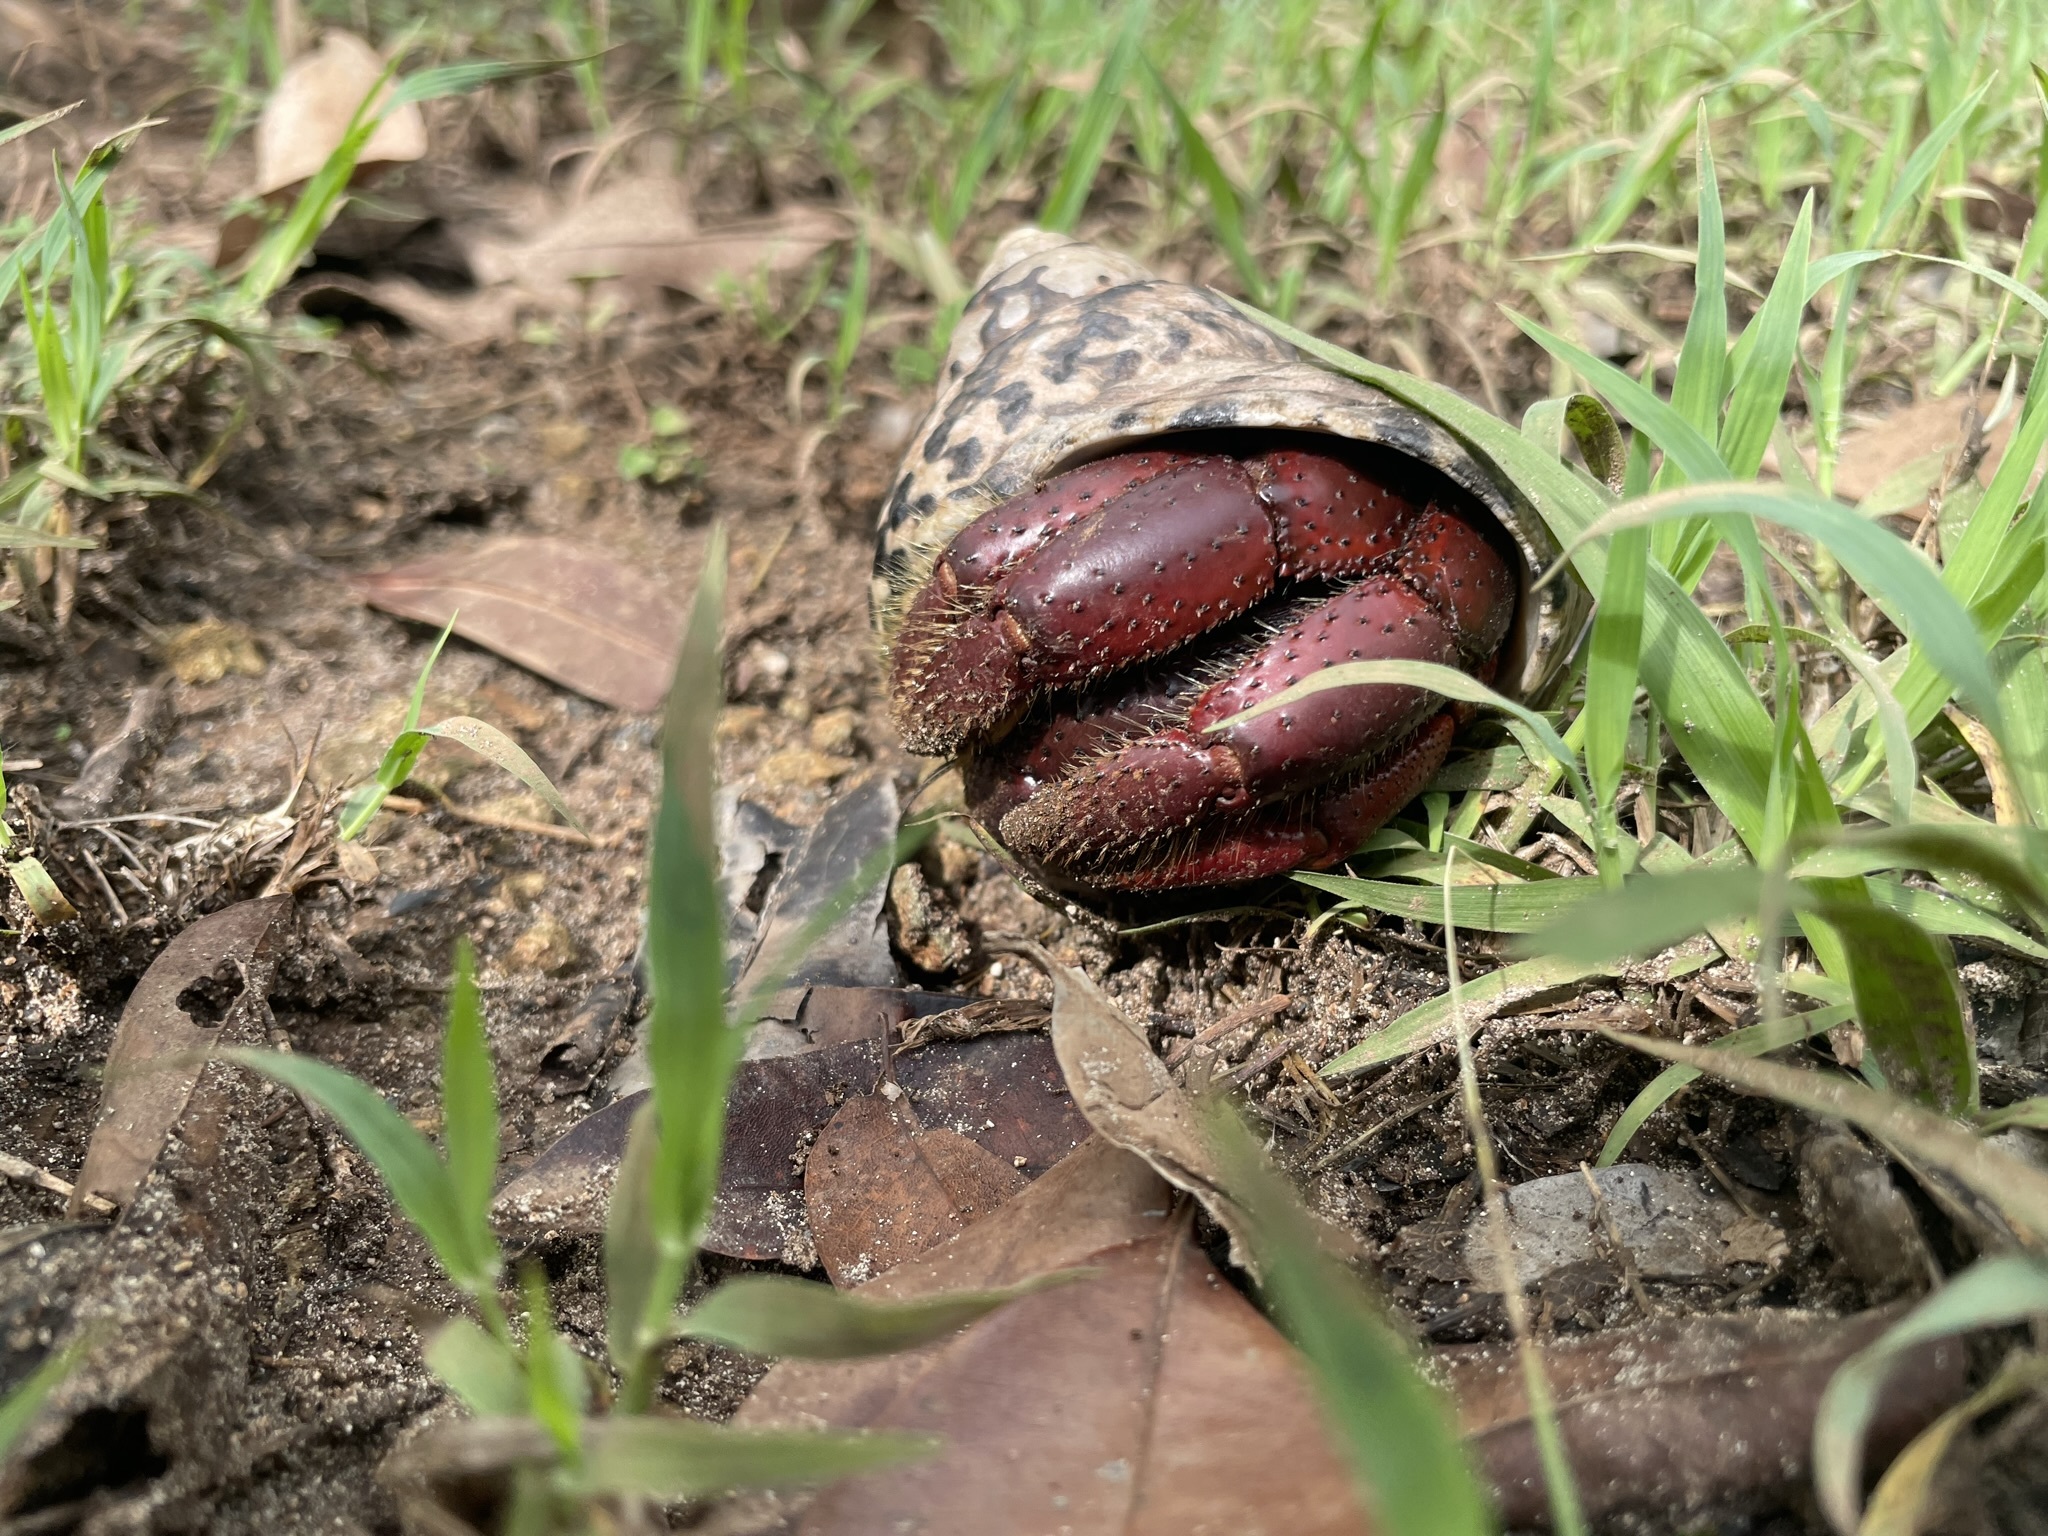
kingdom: Animalia
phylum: Arthropoda
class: Malacostraca
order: Decapoda
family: Coenobitidae
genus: Coenobita
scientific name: Coenobita clypeatus
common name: Caribbean hermit crab
